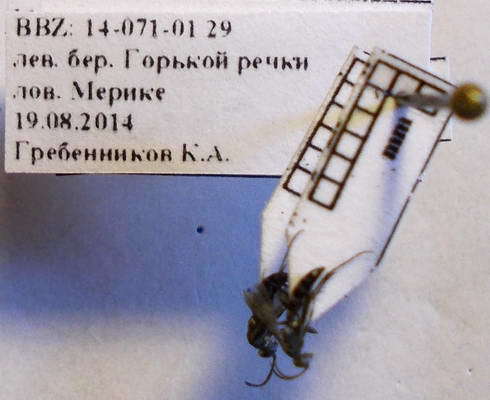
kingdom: Animalia
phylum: Arthropoda
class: Insecta
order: Hymenoptera
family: Pompilidae
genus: Microphadnus
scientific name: Microphadnus pumilus
